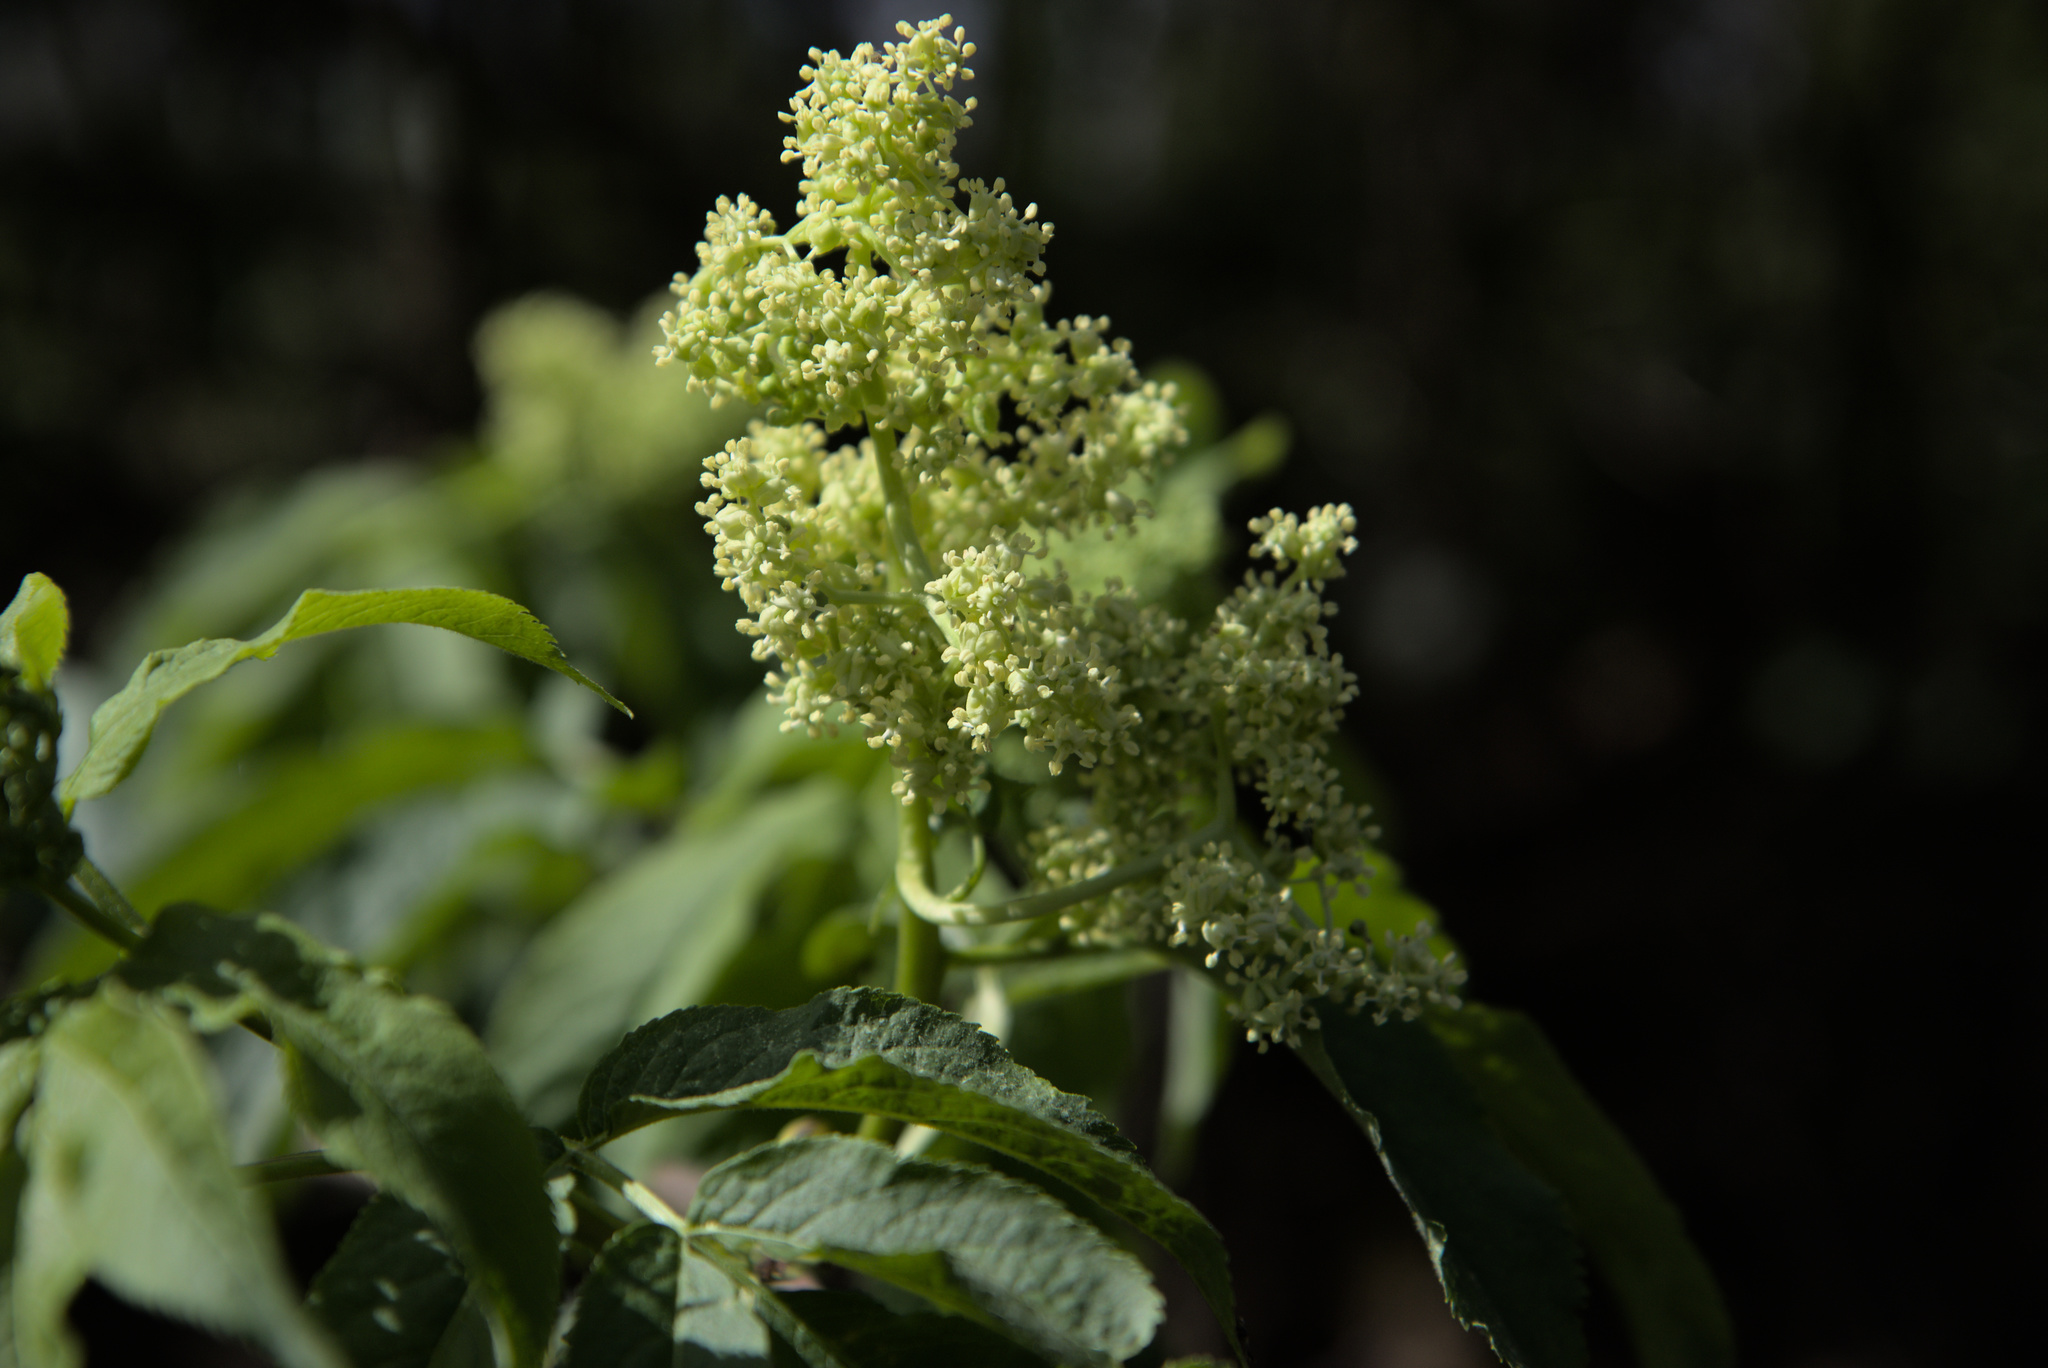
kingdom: Plantae
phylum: Tracheophyta
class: Magnoliopsida
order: Dipsacales
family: Viburnaceae
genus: Sambucus
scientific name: Sambucus racemosa
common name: Red-berried elder
